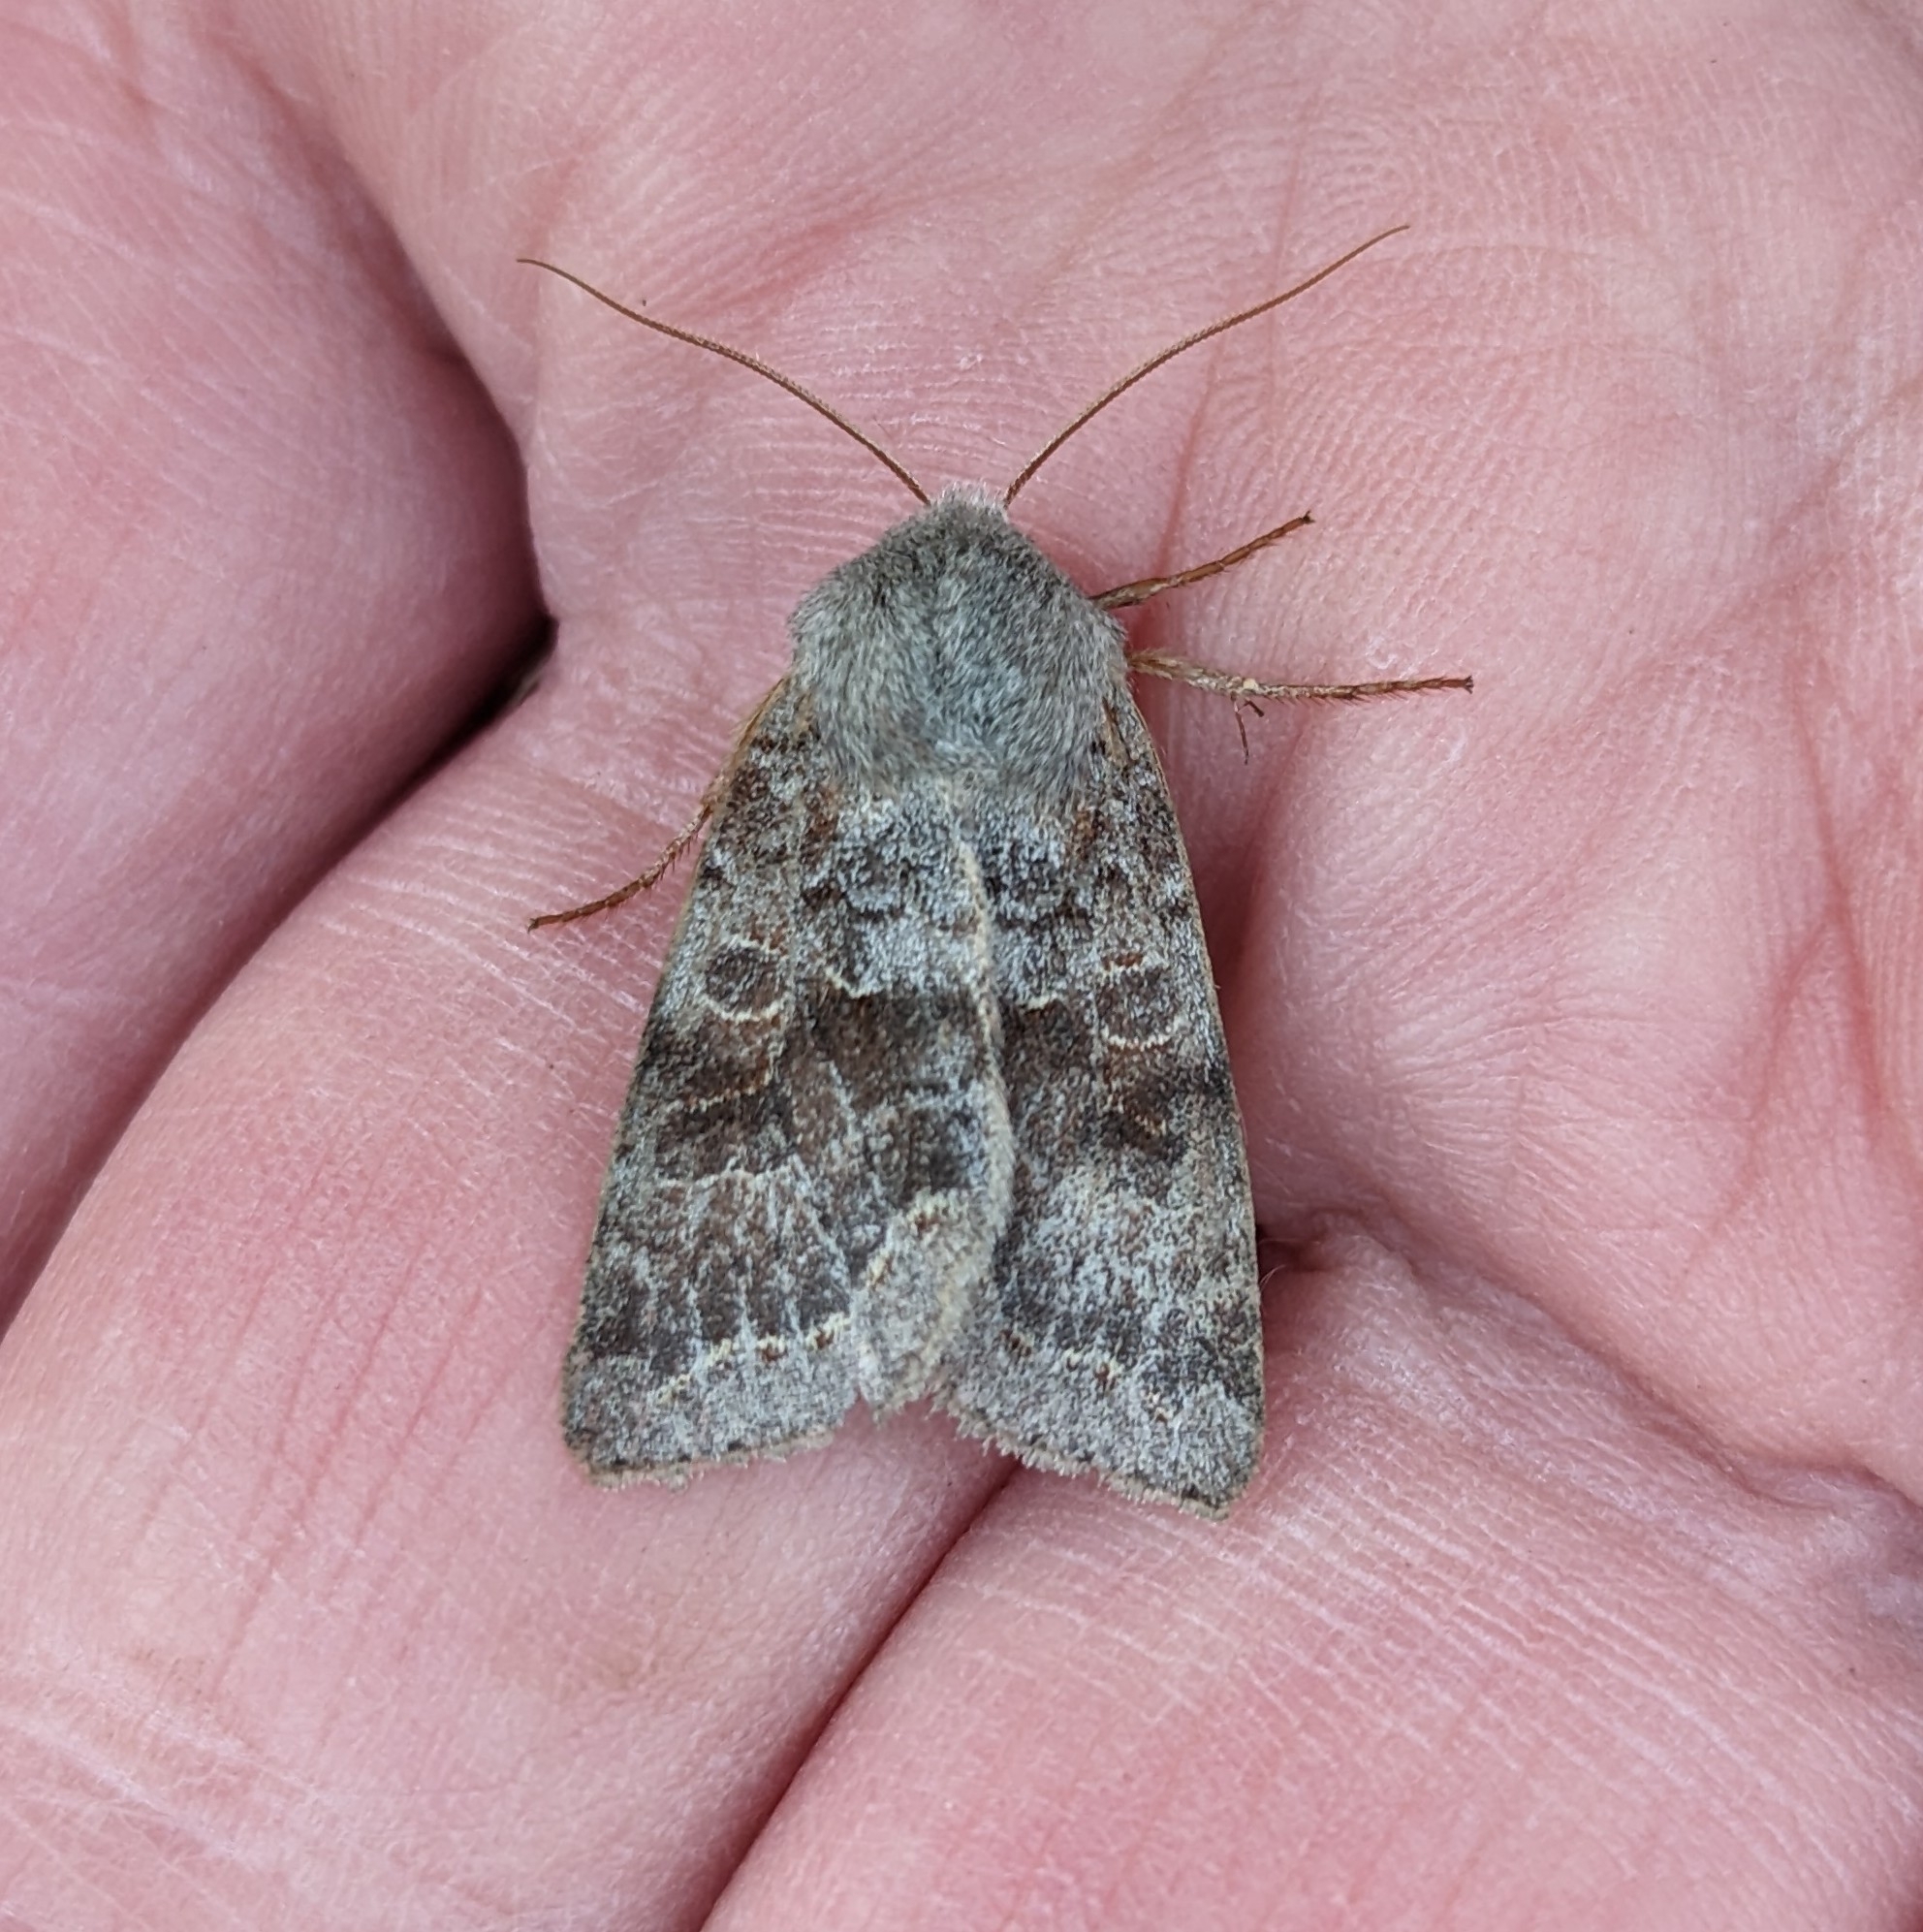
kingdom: Animalia
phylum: Arthropoda
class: Insecta
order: Lepidoptera
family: Noctuidae
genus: Orthosia
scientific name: Orthosia revicta
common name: Rusty whitesided caterpillar
